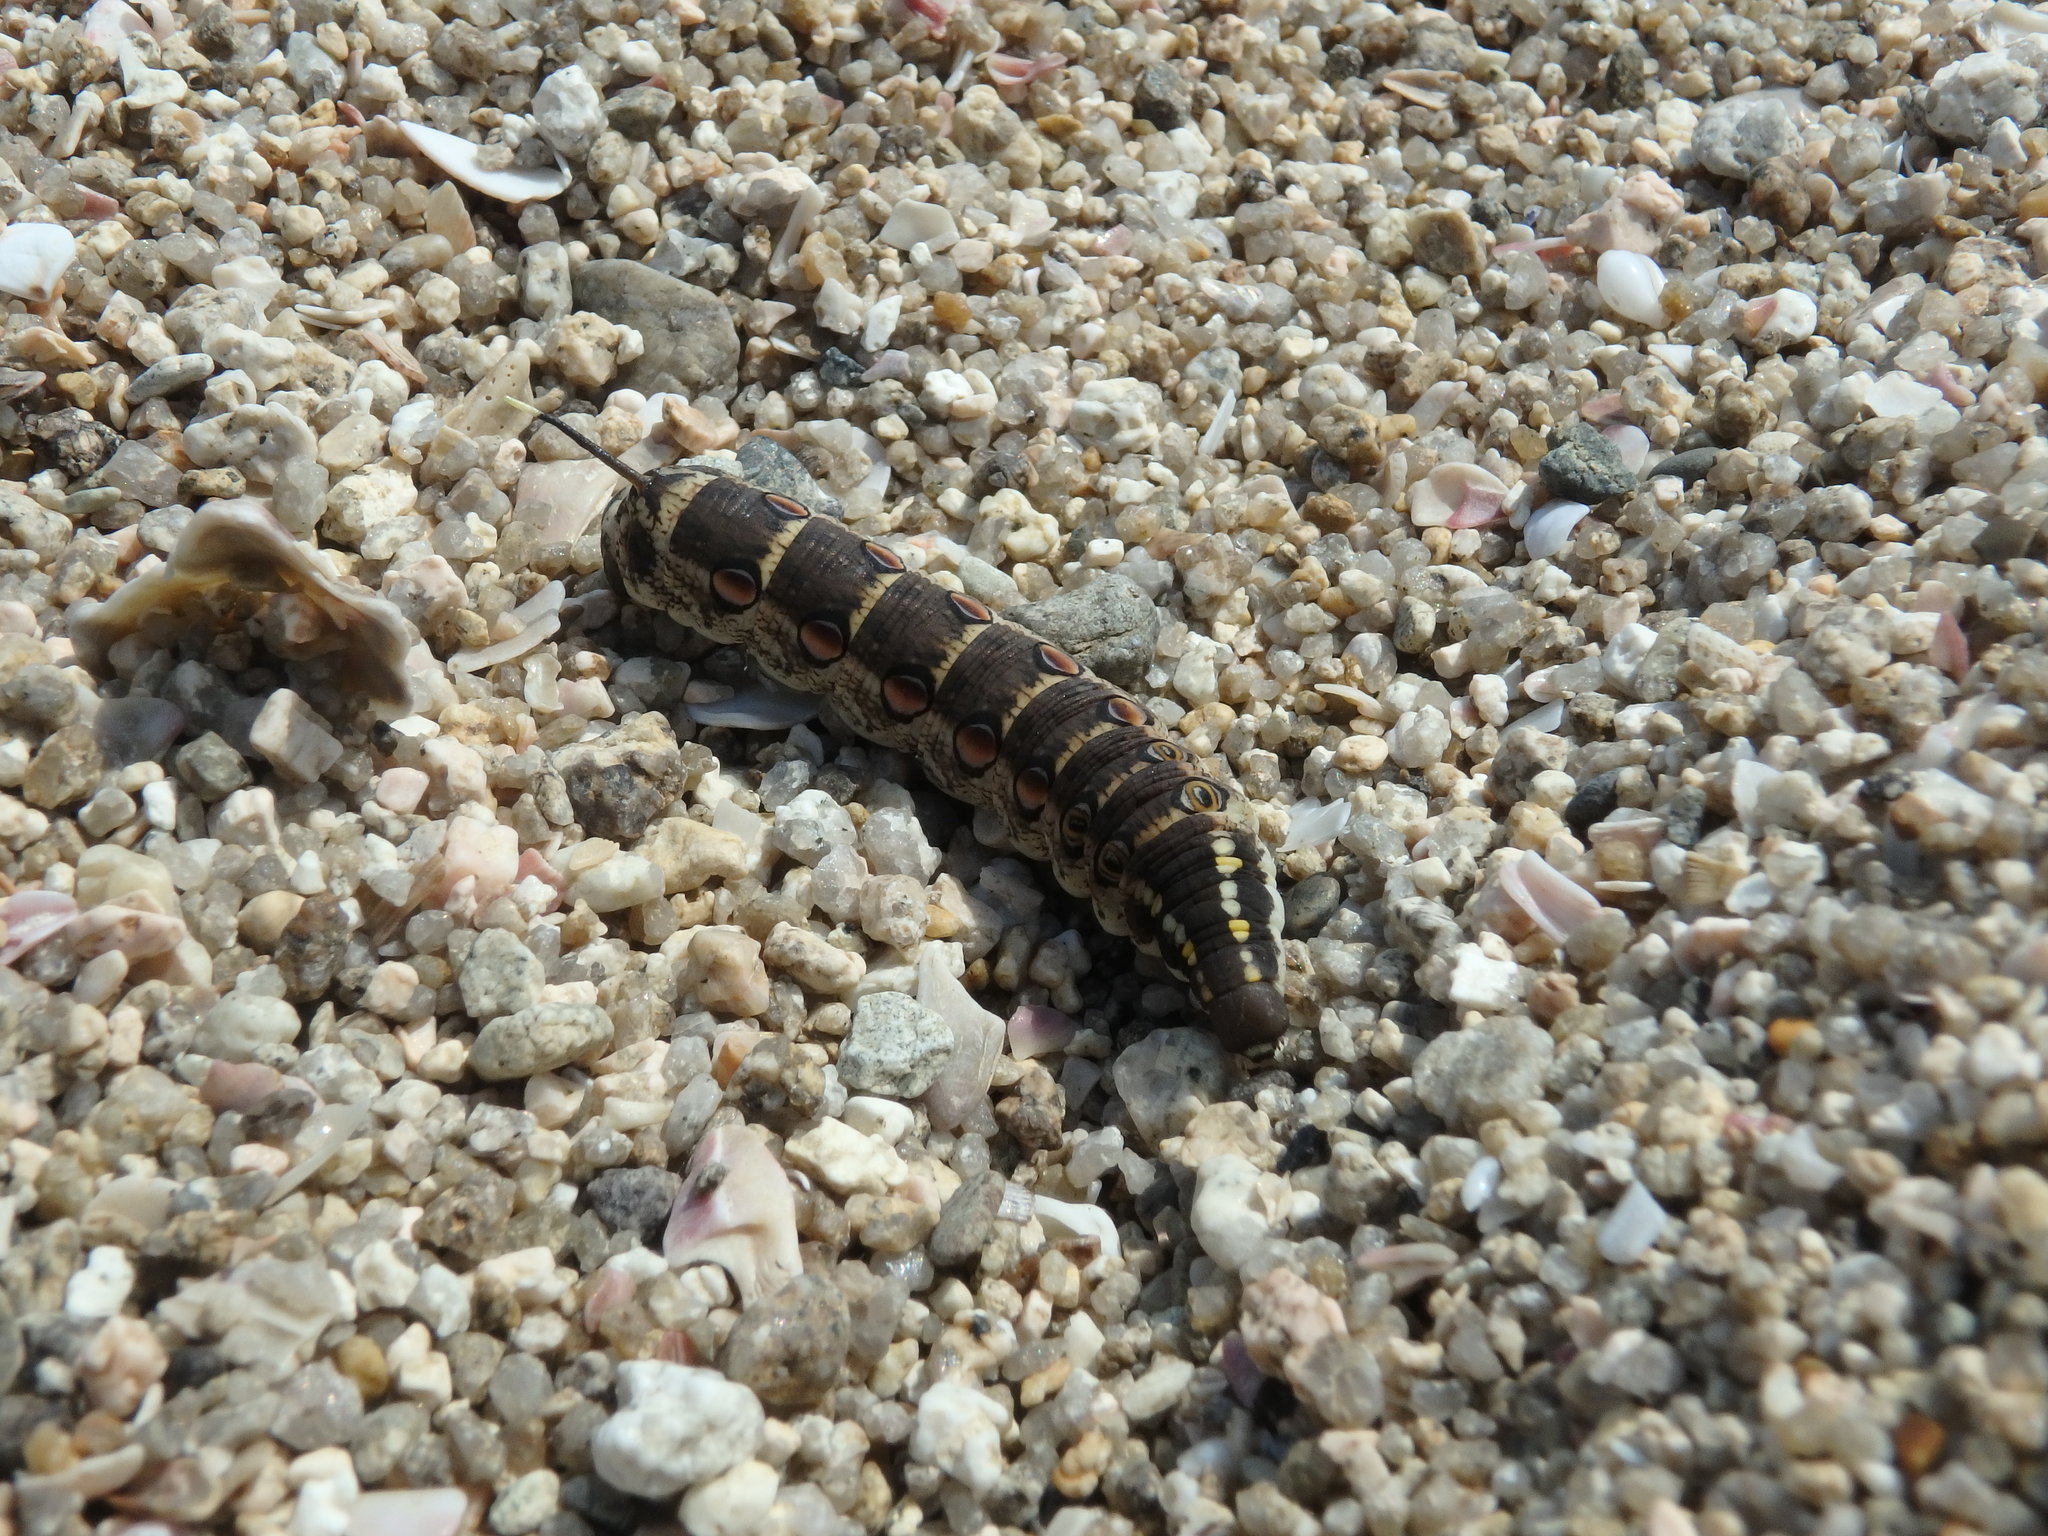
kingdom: Animalia
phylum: Arthropoda
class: Insecta
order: Lepidoptera
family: Sphingidae
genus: Theretra
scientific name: Theretra oldenlandiae
